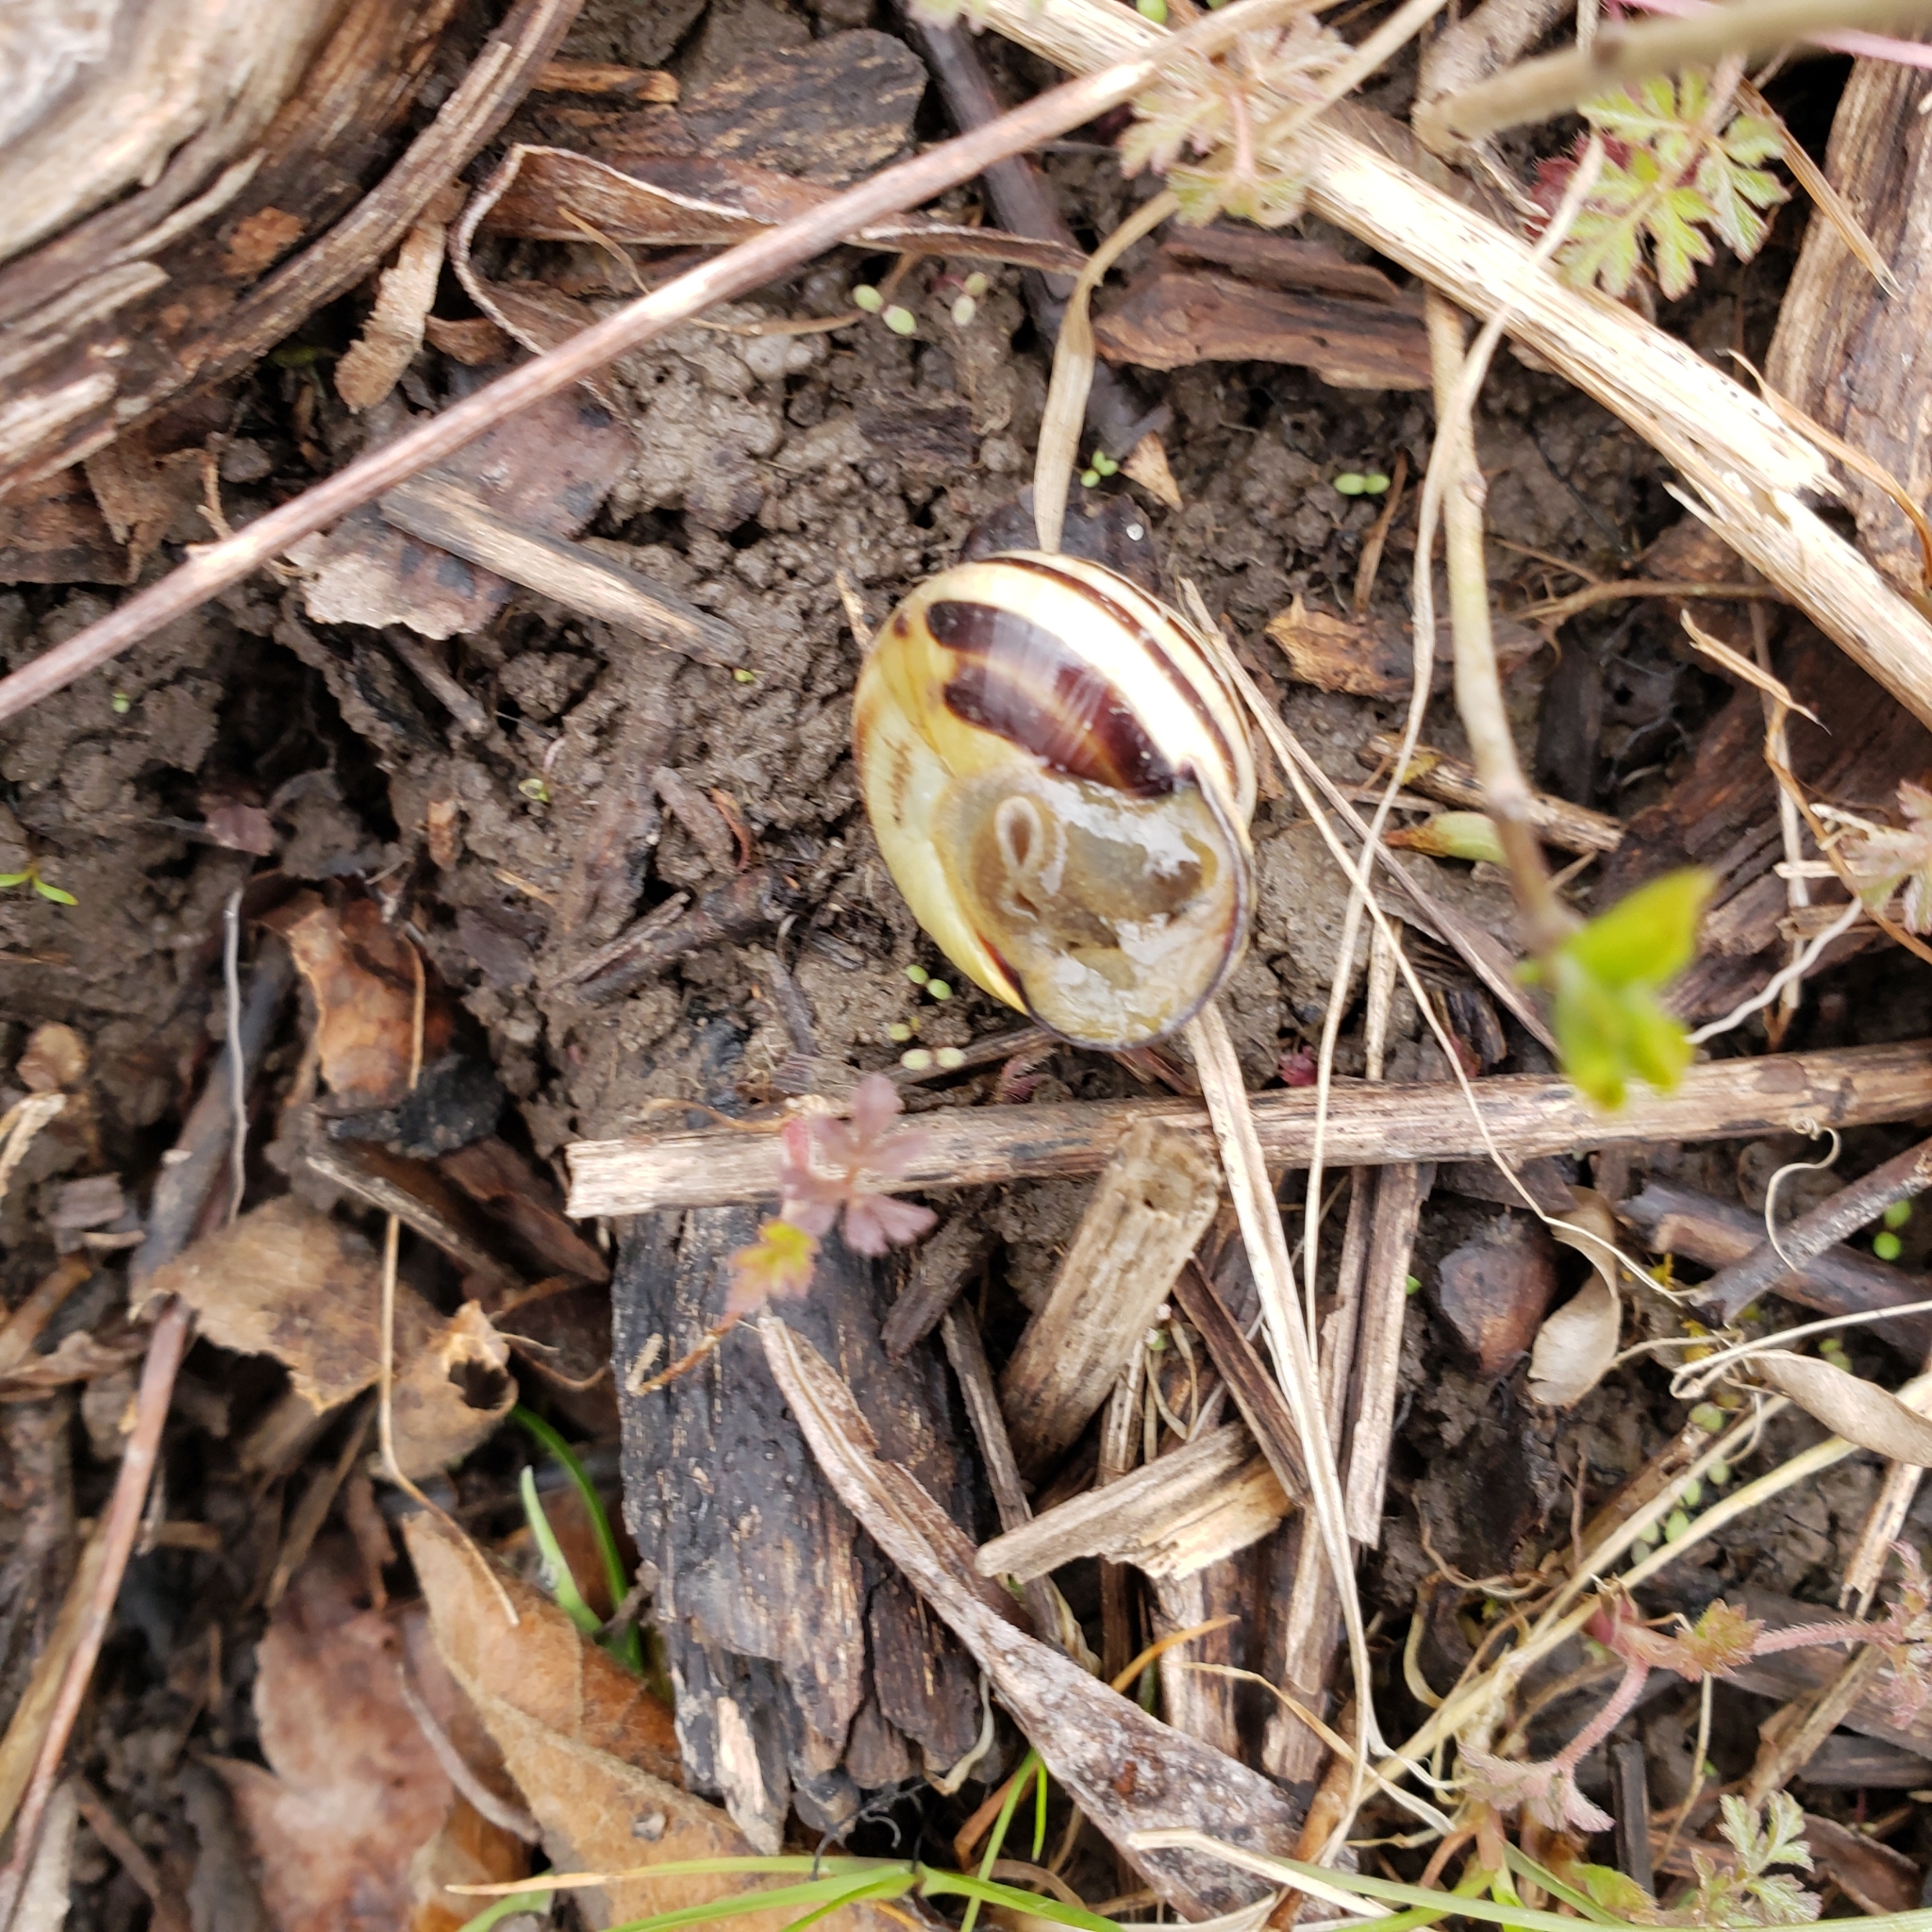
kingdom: Animalia
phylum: Mollusca
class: Gastropoda
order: Stylommatophora
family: Helicidae
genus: Cepaea
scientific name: Cepaea nemoralis
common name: Grovesnail
